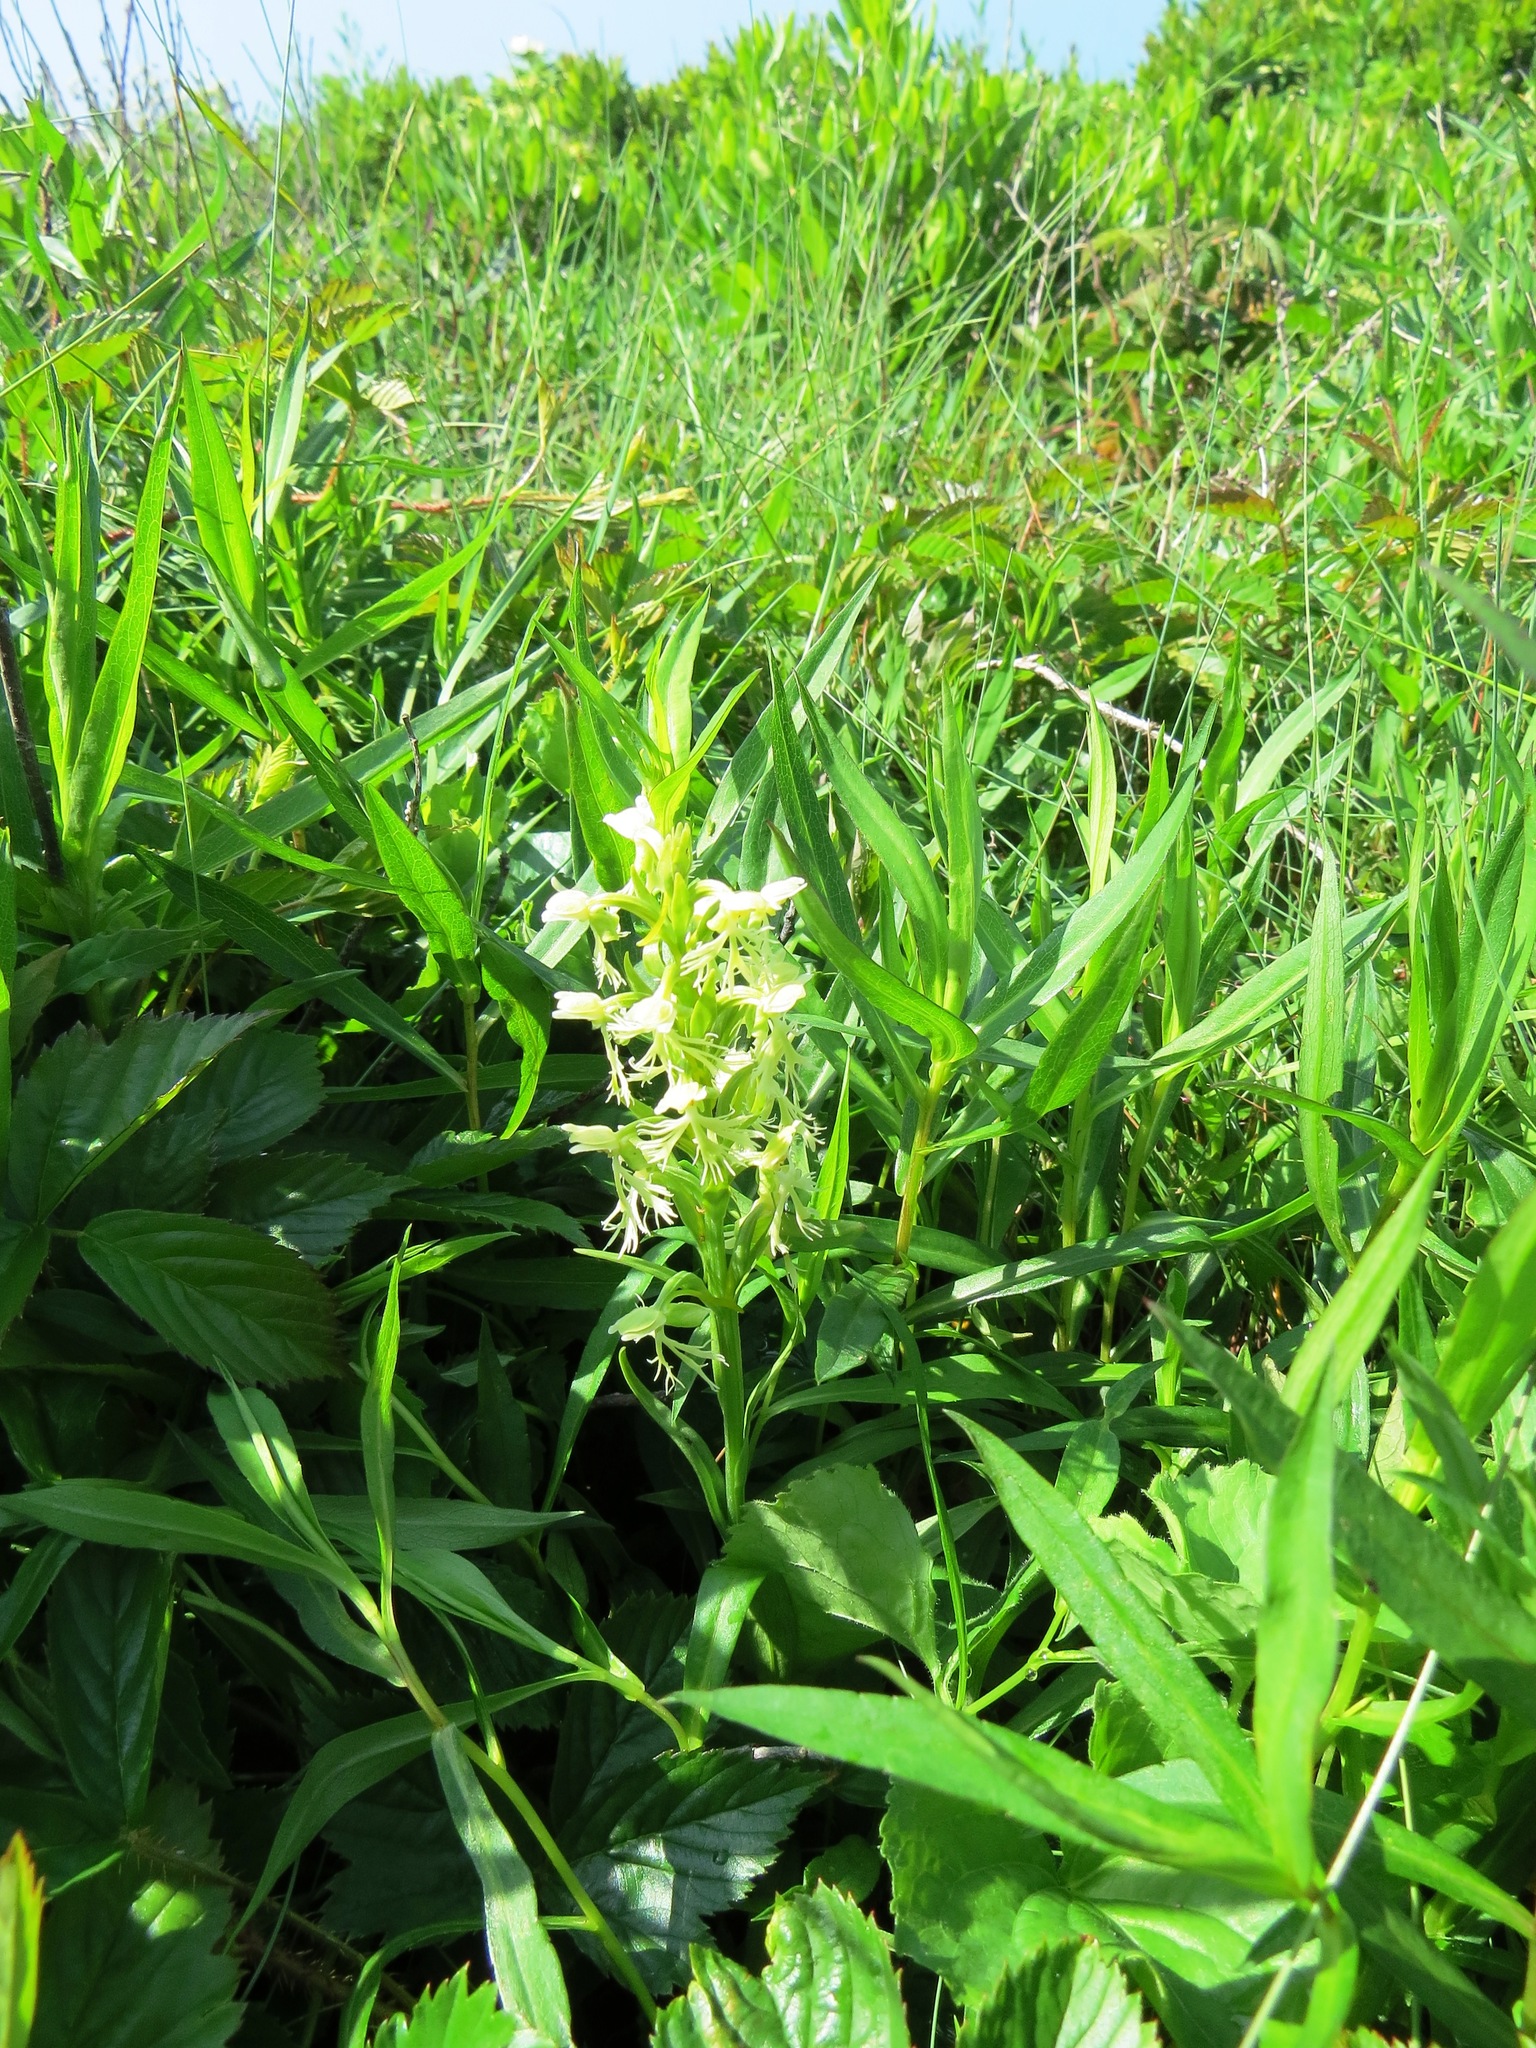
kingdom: Plantae
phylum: Tracheophyta
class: Liliopsida
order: Asparagales
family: Orchidaceae
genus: Platanthera
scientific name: Platanthera lacera
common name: Green fringed orchid
